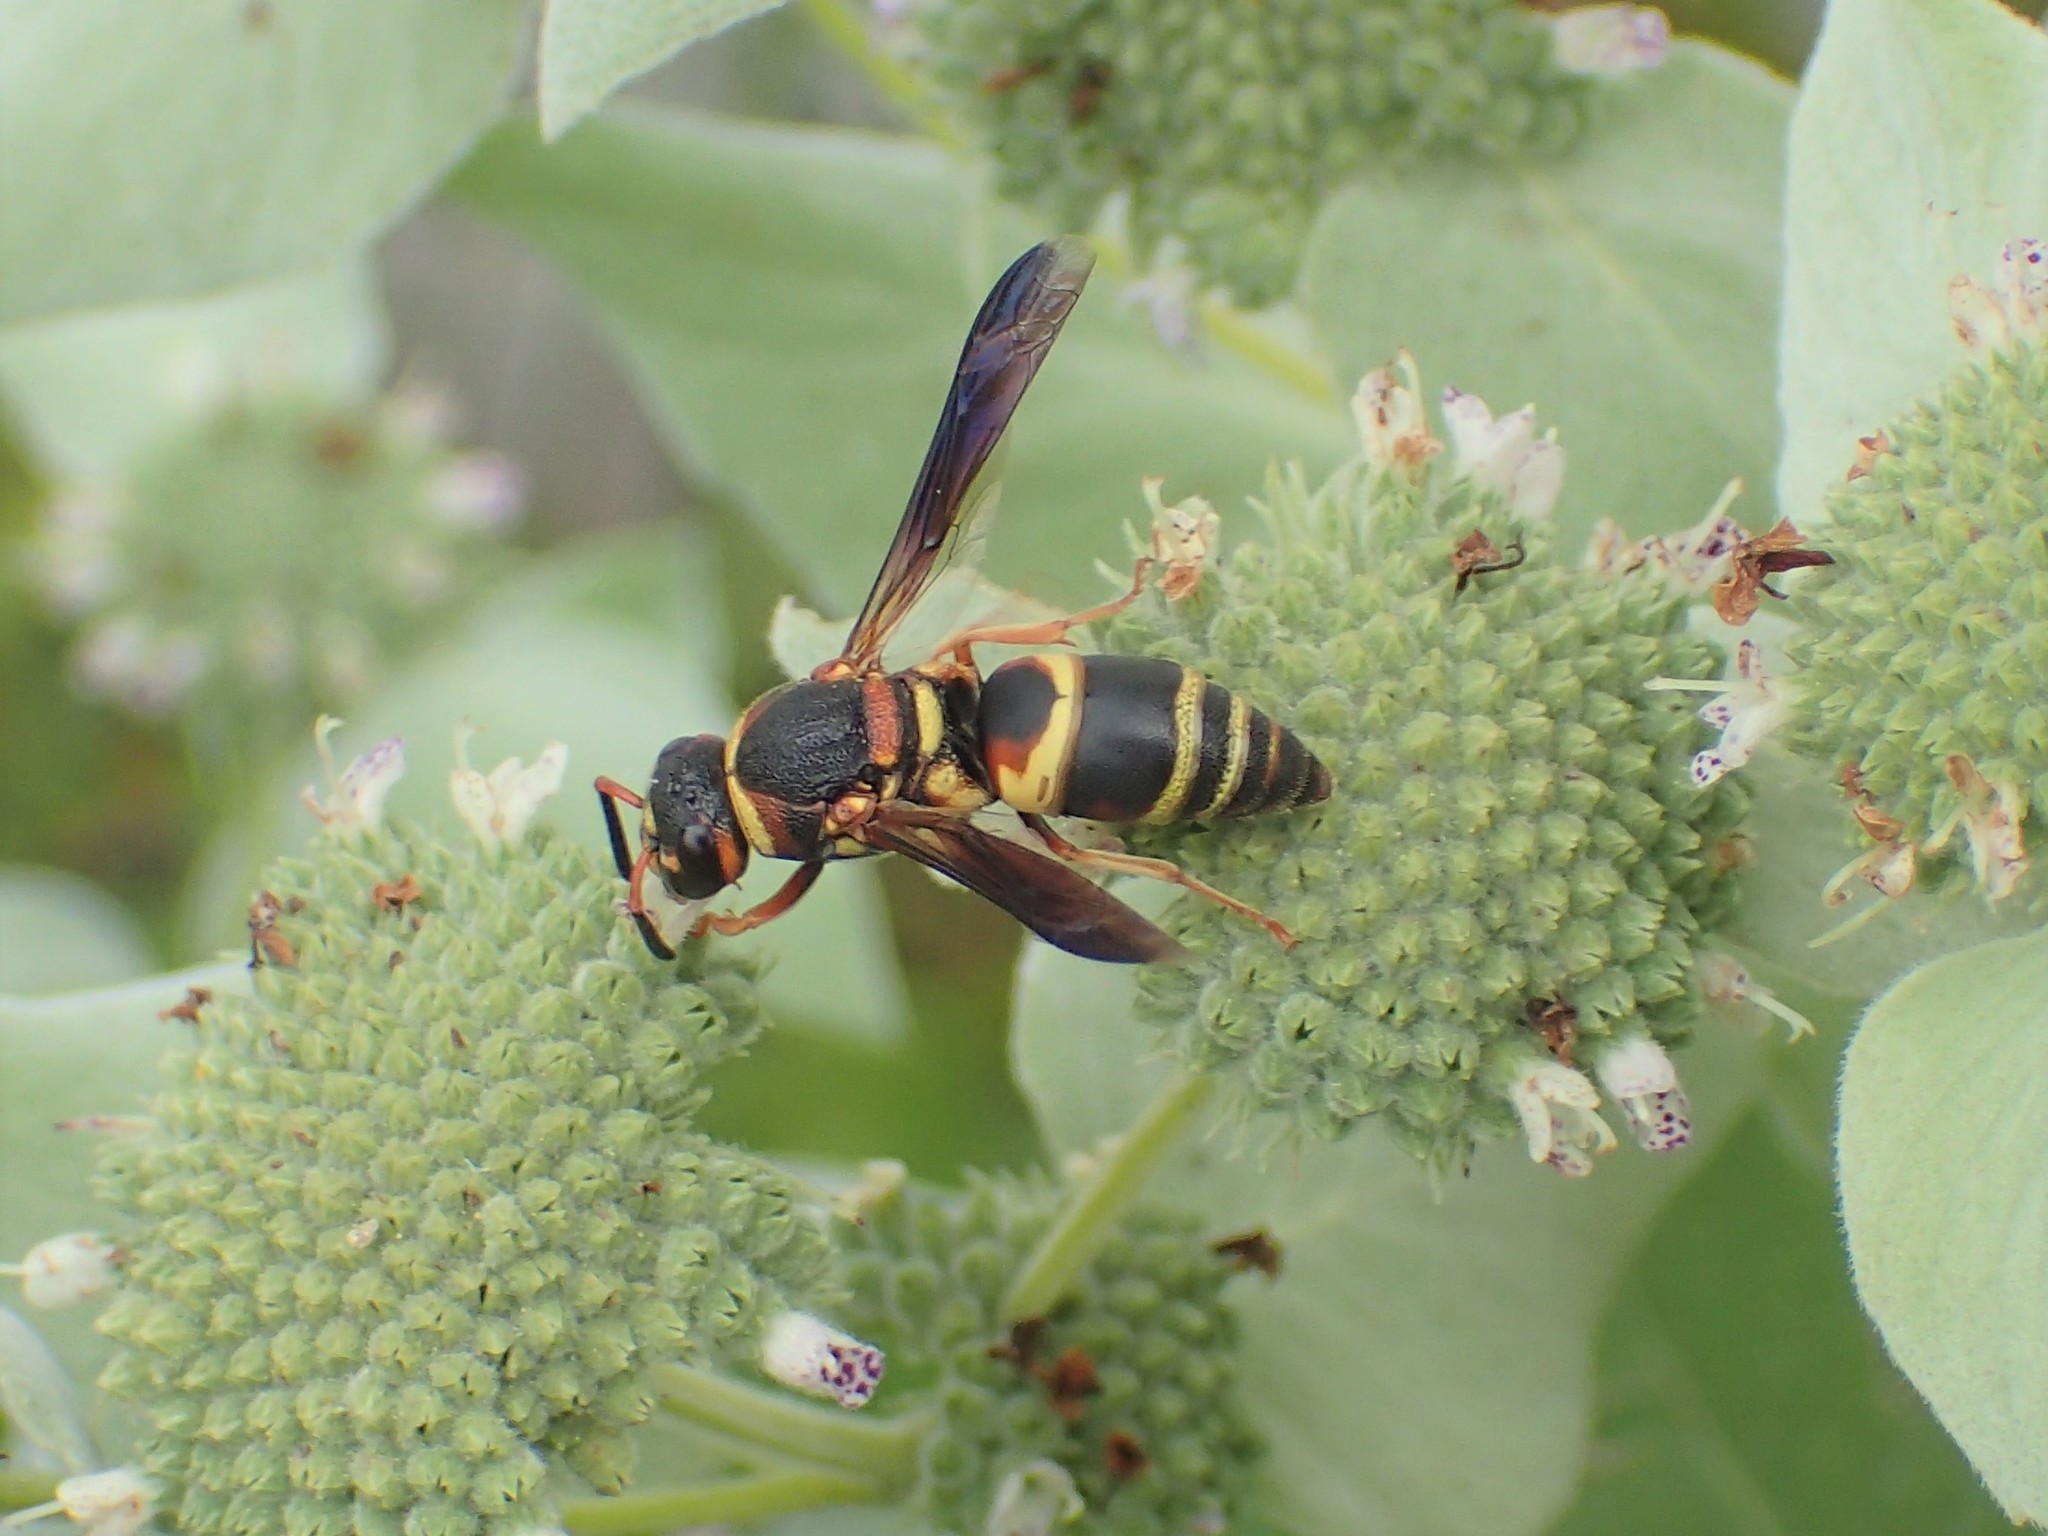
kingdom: Animalia
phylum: Arthropoda
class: Insecta
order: Hymenoptera
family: Eumenidae
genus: Euodynerus
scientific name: Euodynerus hidalgo
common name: Wasp
